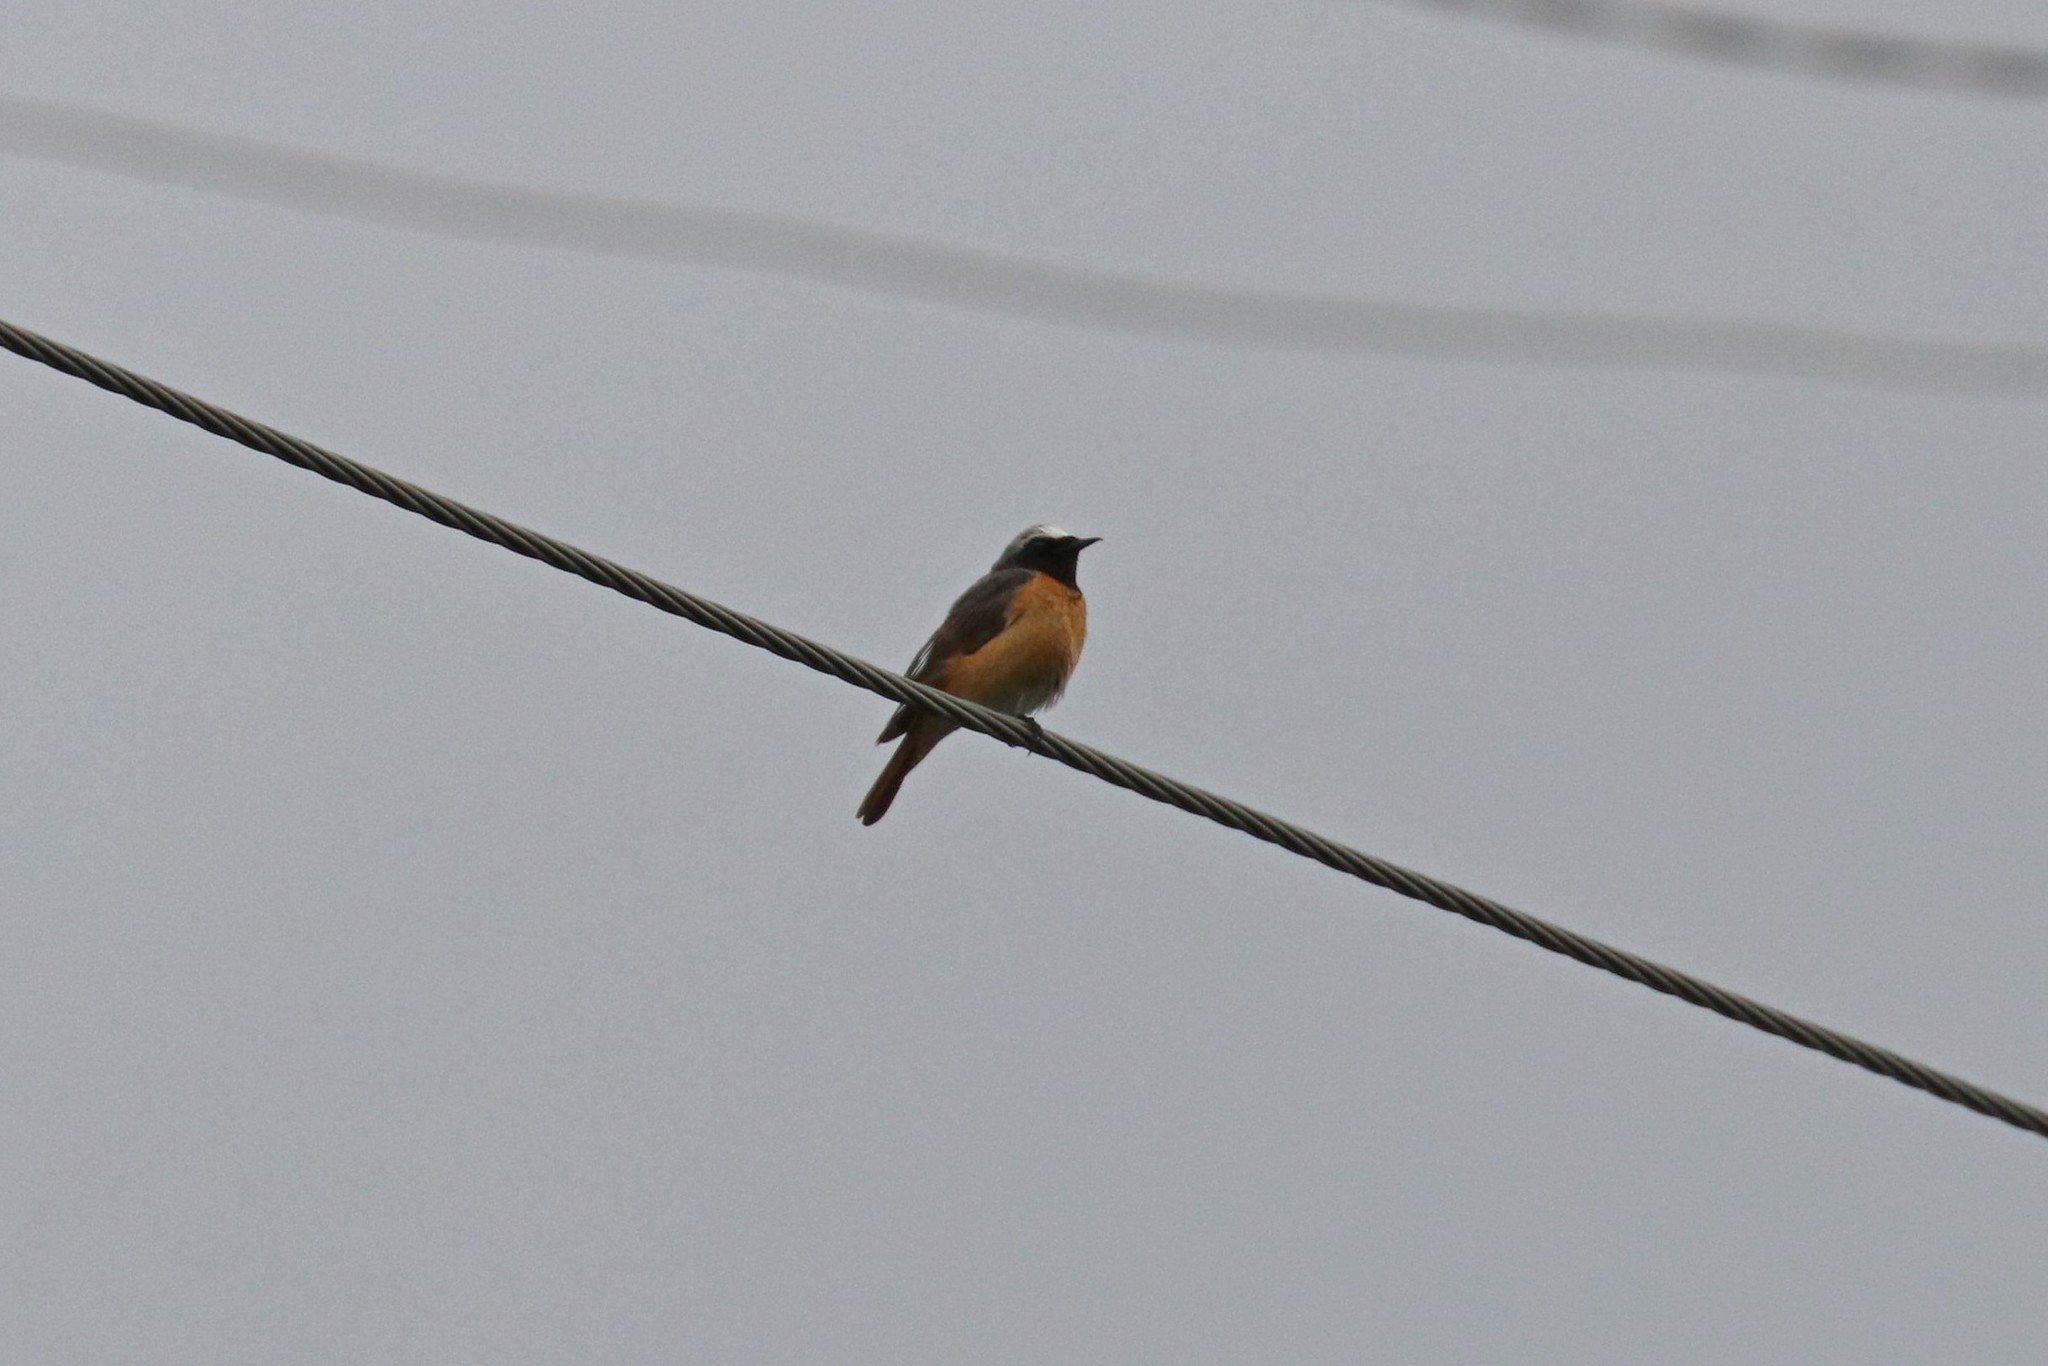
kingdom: Animalia
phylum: Chordata
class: Aves
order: Passeriformes
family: Muscicapidae
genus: Phoenicurus
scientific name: Phoenicurus phoenicurus
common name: Common redstart
